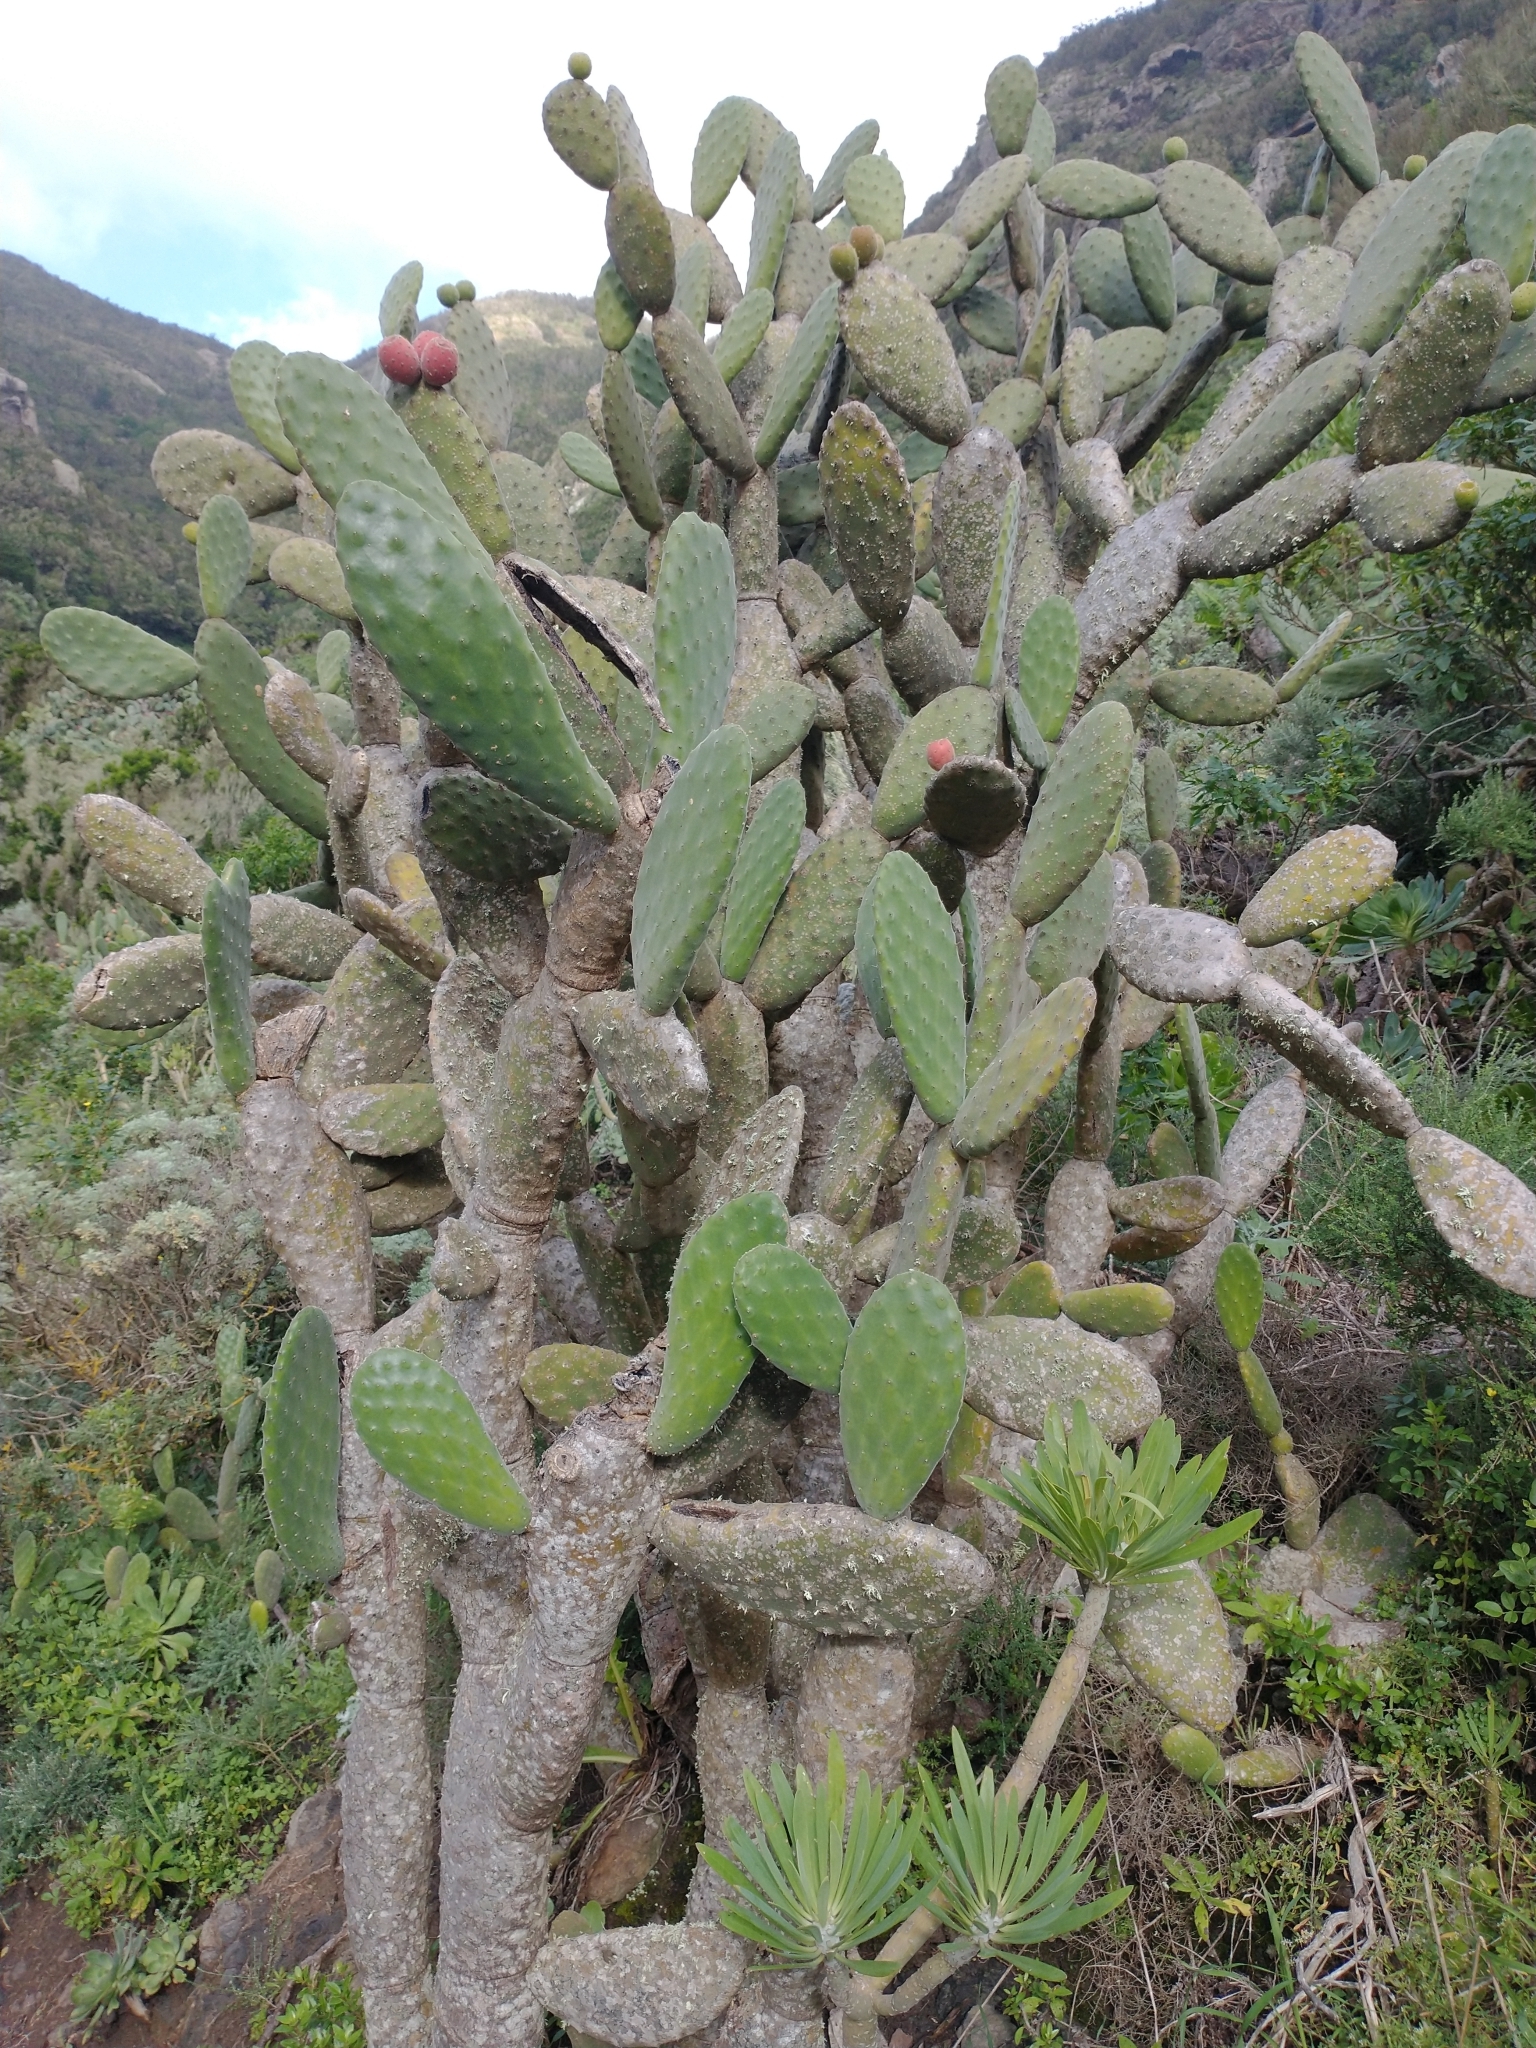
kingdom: Plantae
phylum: Tracheophyta
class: Magnoliopsida
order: Caryophyllales
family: Cactaceae
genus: Opuntia
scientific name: Opuntia tomentosa
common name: Woollyjoint pricklypear
